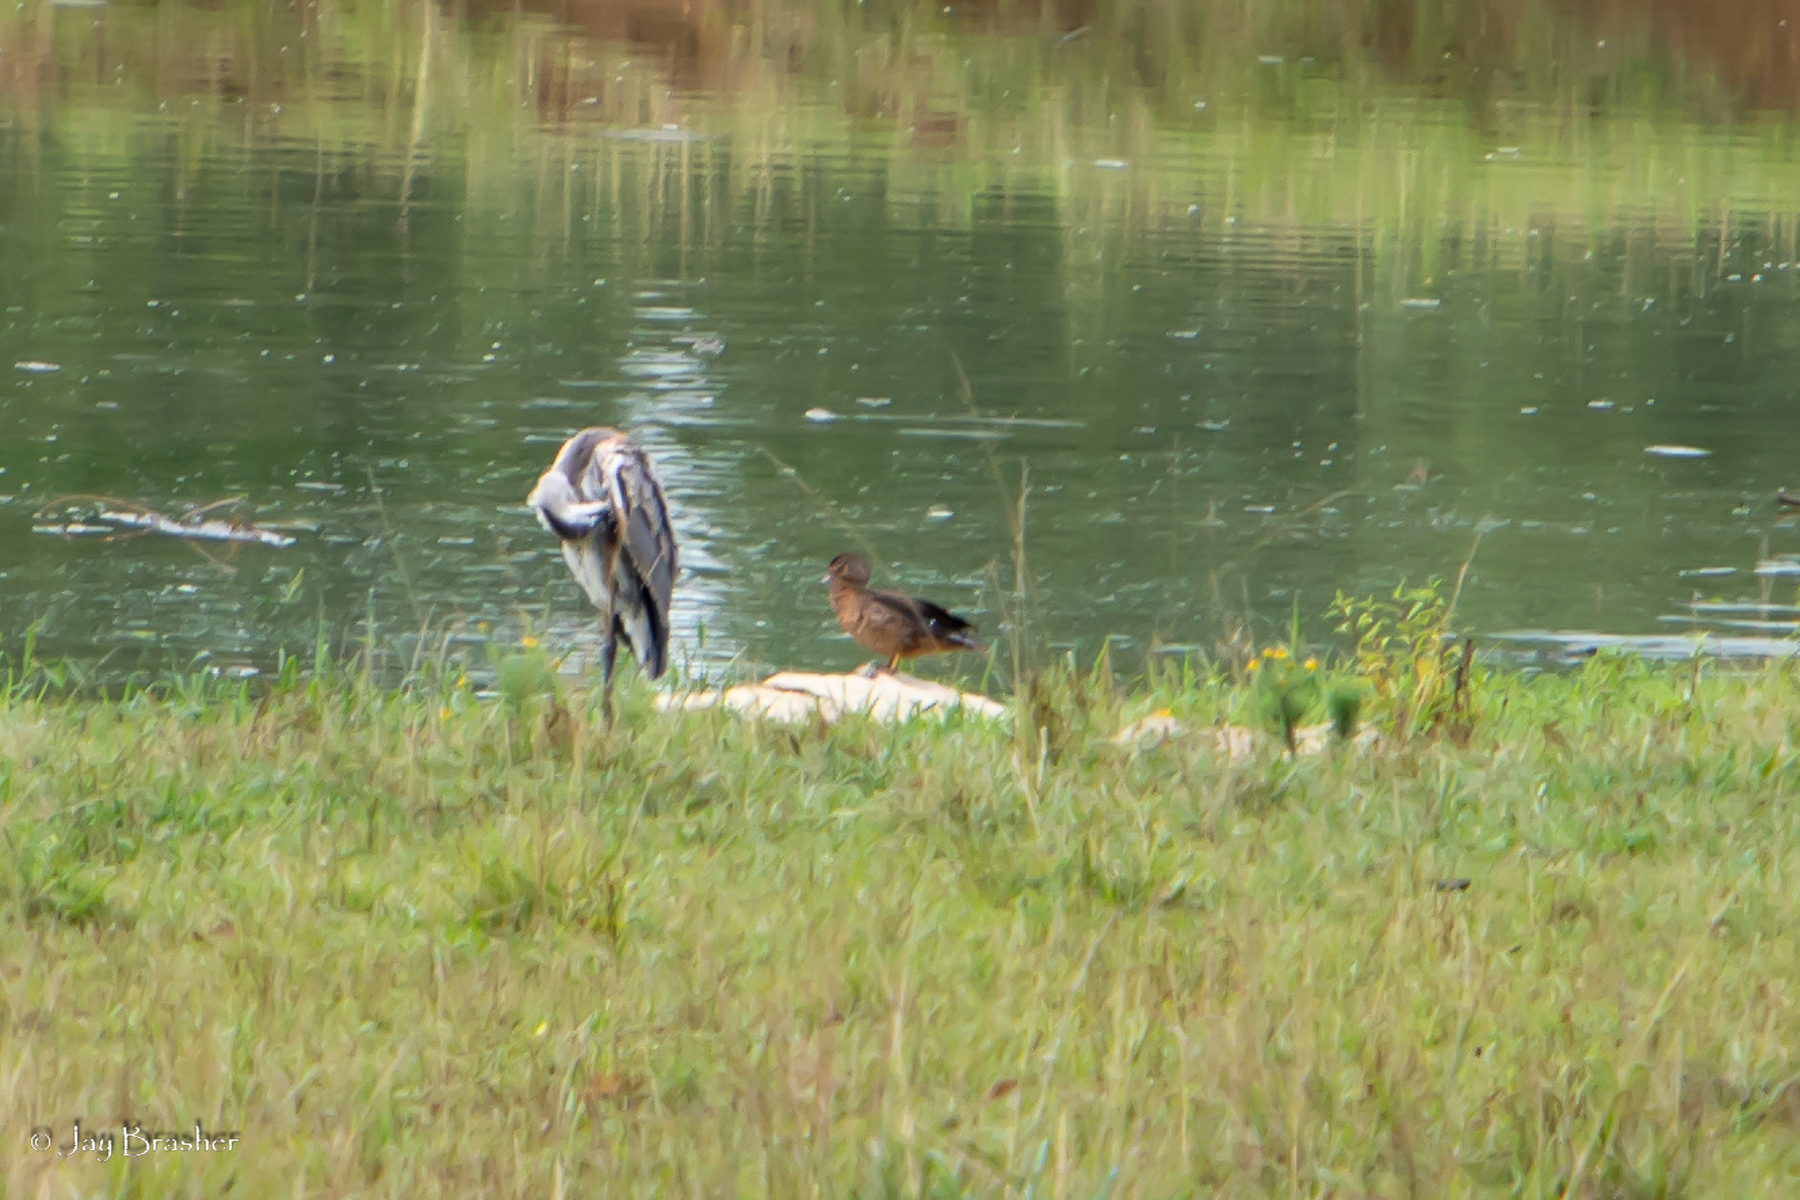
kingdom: Animalia
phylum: Chordata
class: Aves
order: Anseriformes
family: Anatidae
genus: Aix
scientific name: Aix sponsa
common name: Wood duck
